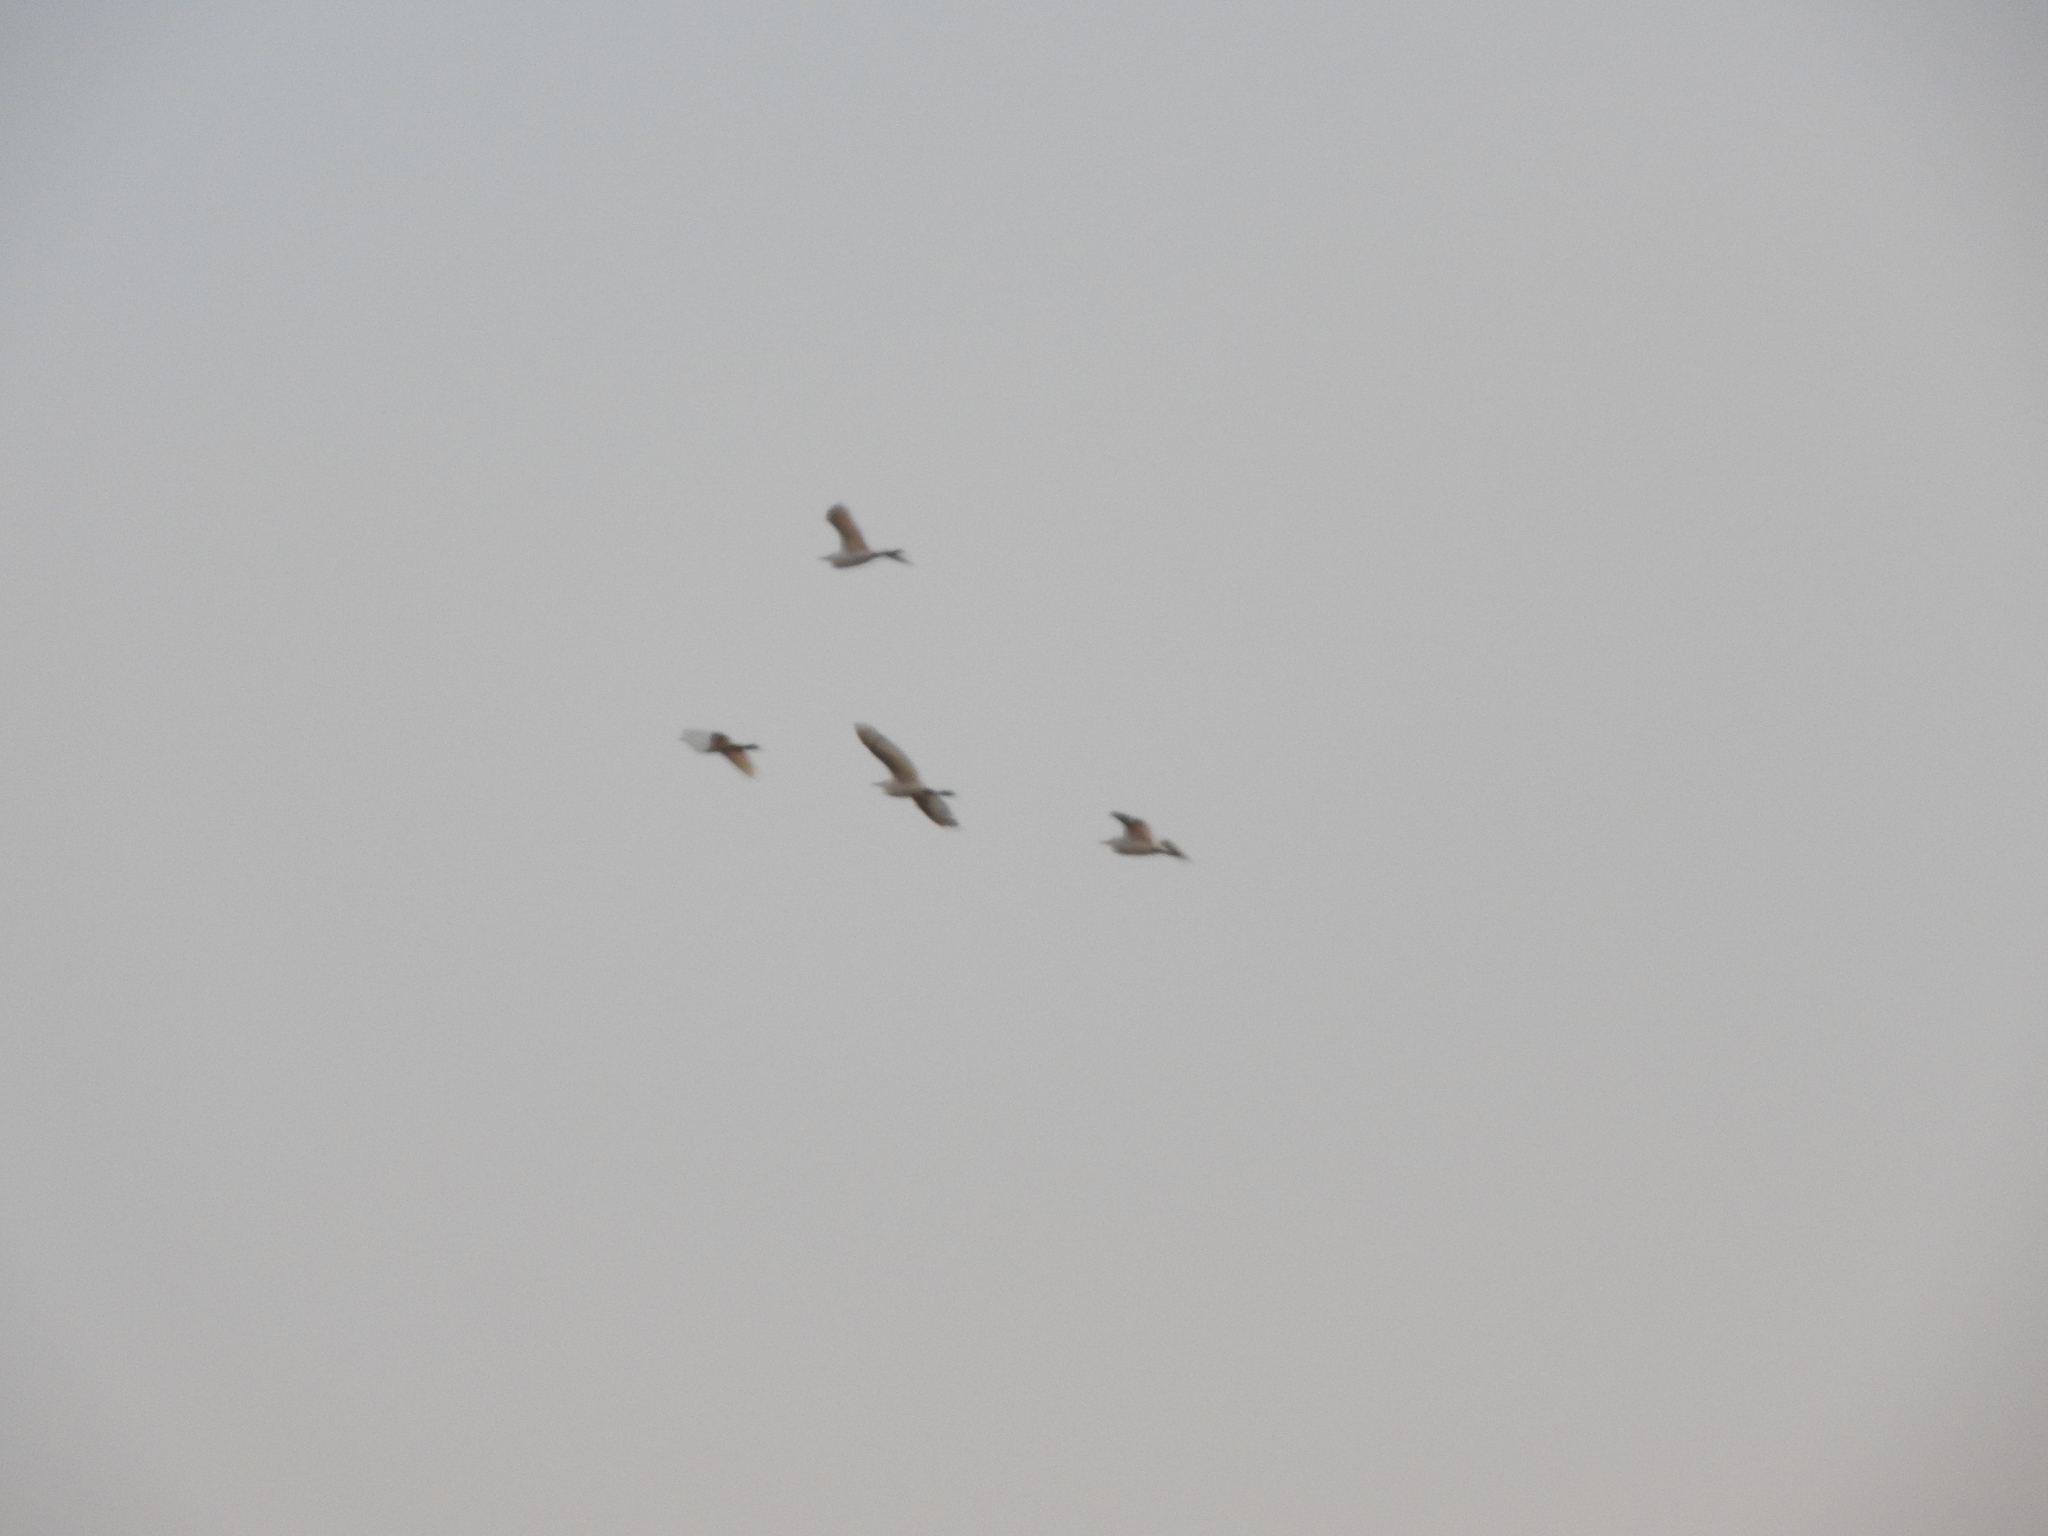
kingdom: Animalia
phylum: Chordata
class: Aves
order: Pelecaniformes
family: Ardeidae
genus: Bubulcus
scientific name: Bubulcus ibis
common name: Cattle egret
